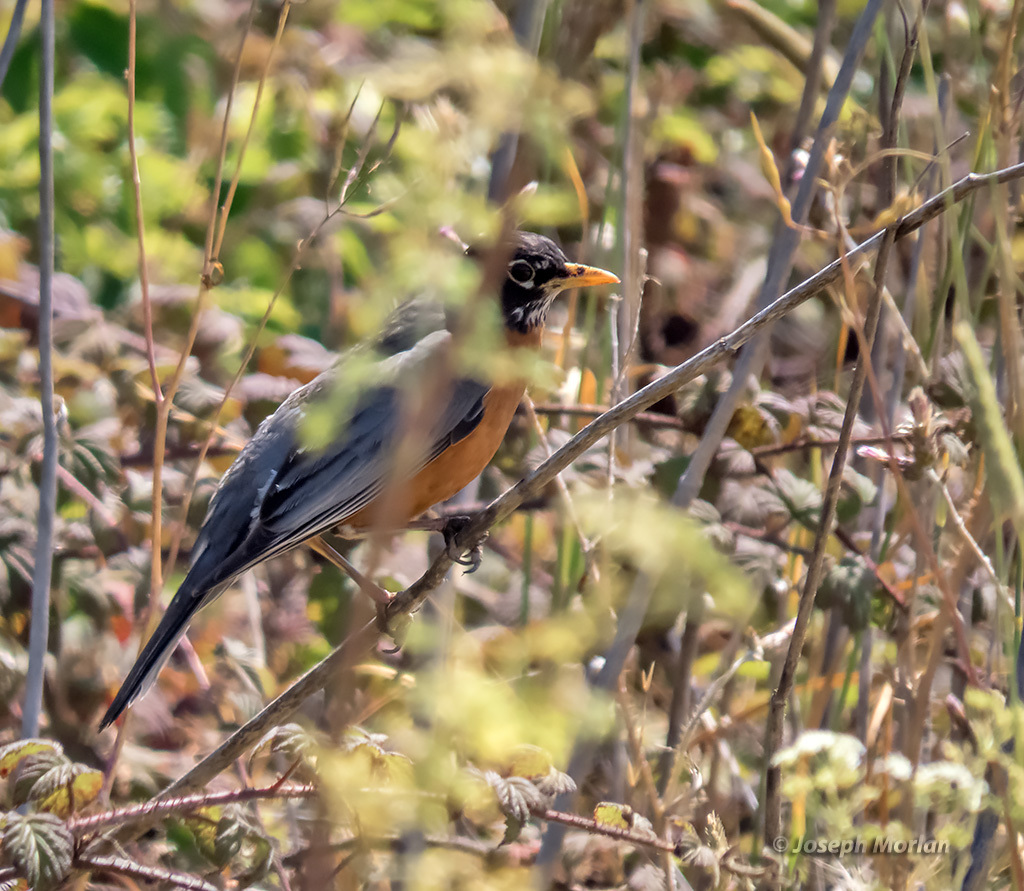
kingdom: Animalia
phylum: Chordata
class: Aves
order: Passeriformes
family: Turdidae
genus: Turdus
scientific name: Turdus migratorius
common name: American robin
